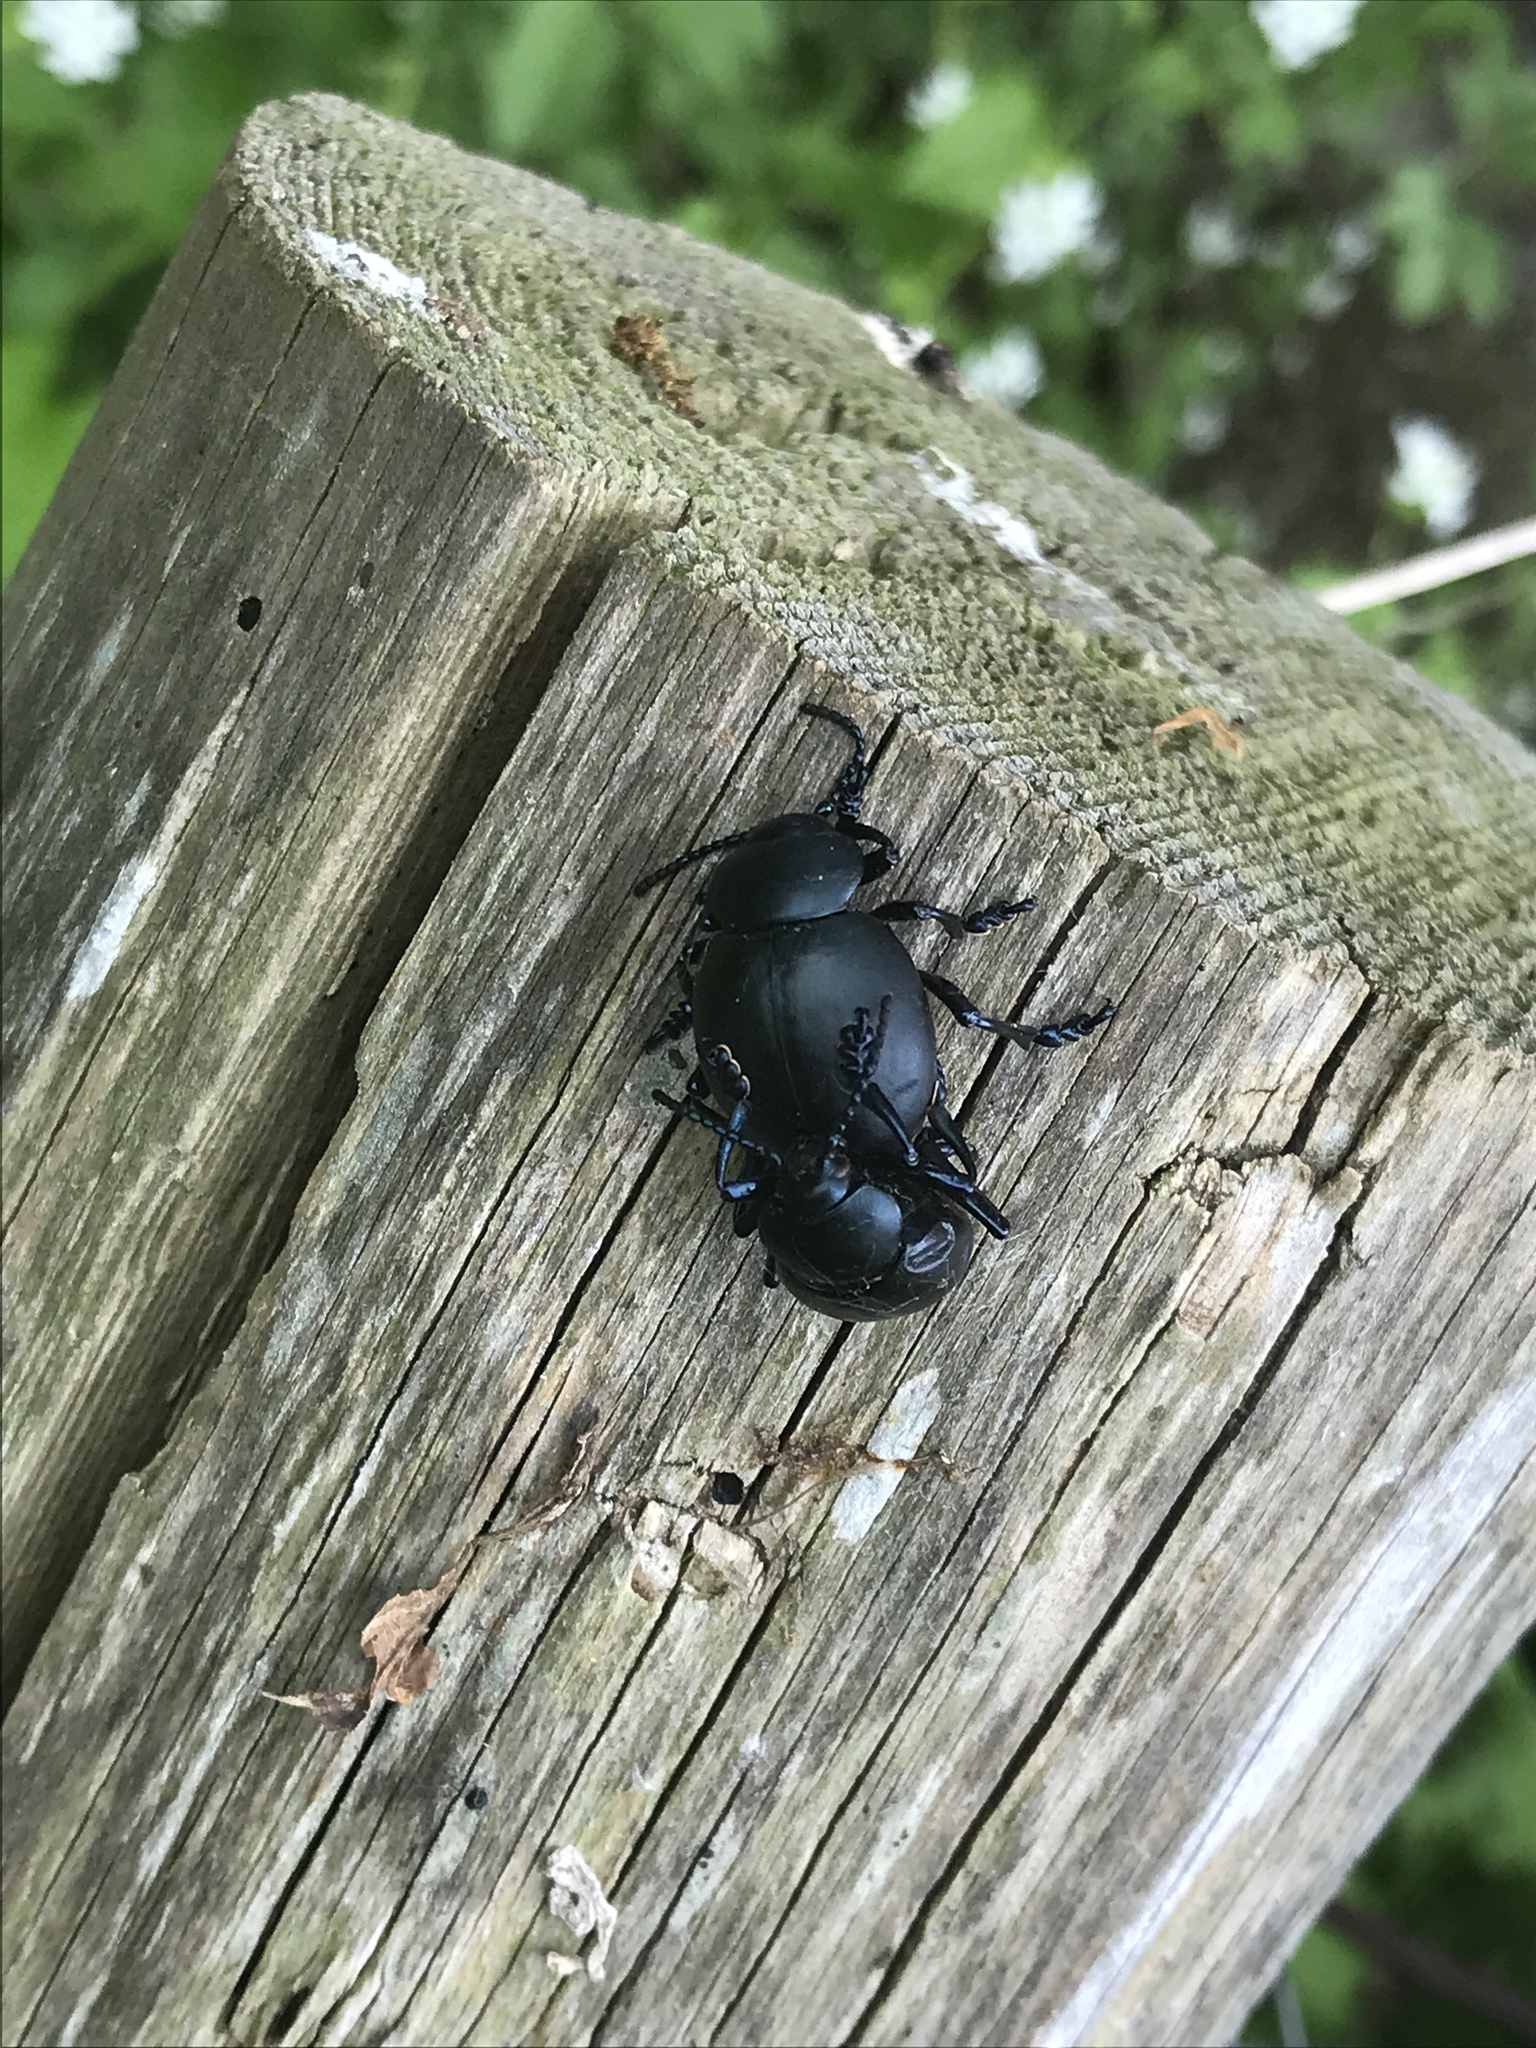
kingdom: Animalia
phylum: Arthropoda
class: Insecta
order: Coleoptera
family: Chrysomelidae
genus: Timarcha
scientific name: Timarcha tenebricosa
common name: Bloody-nosed beetle
